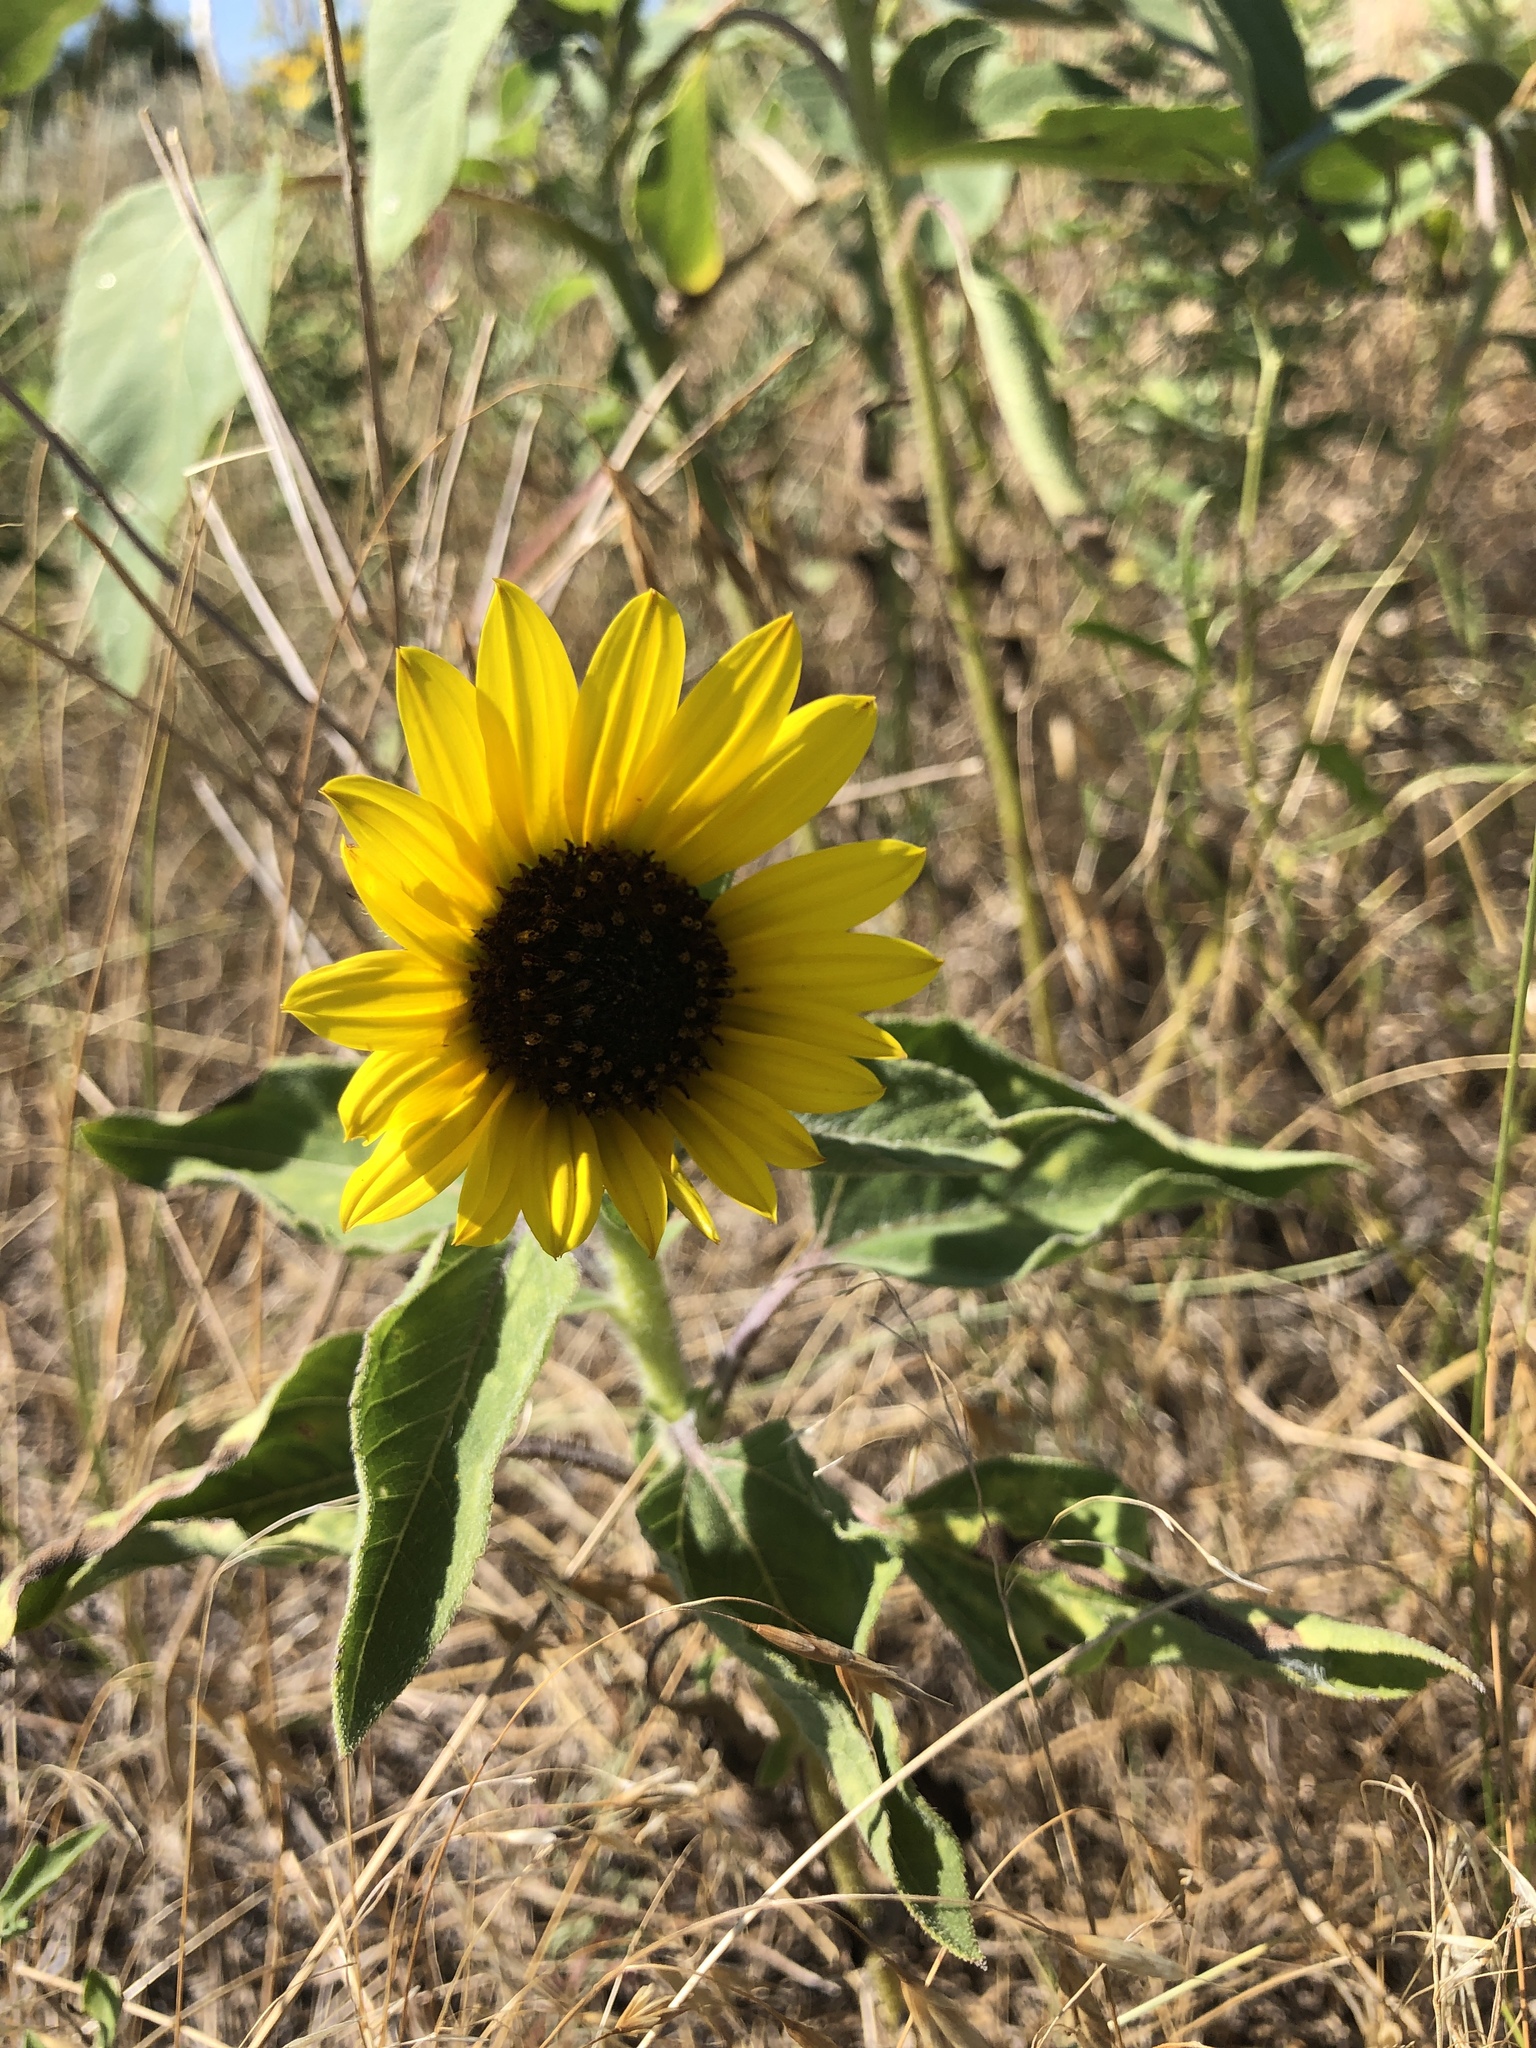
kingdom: Plantae
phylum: Tracheophyta
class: Magnoliopsida
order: Asterales
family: Asteraceae
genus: Helianthus
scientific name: Helianthus annuus
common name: Sunflower
